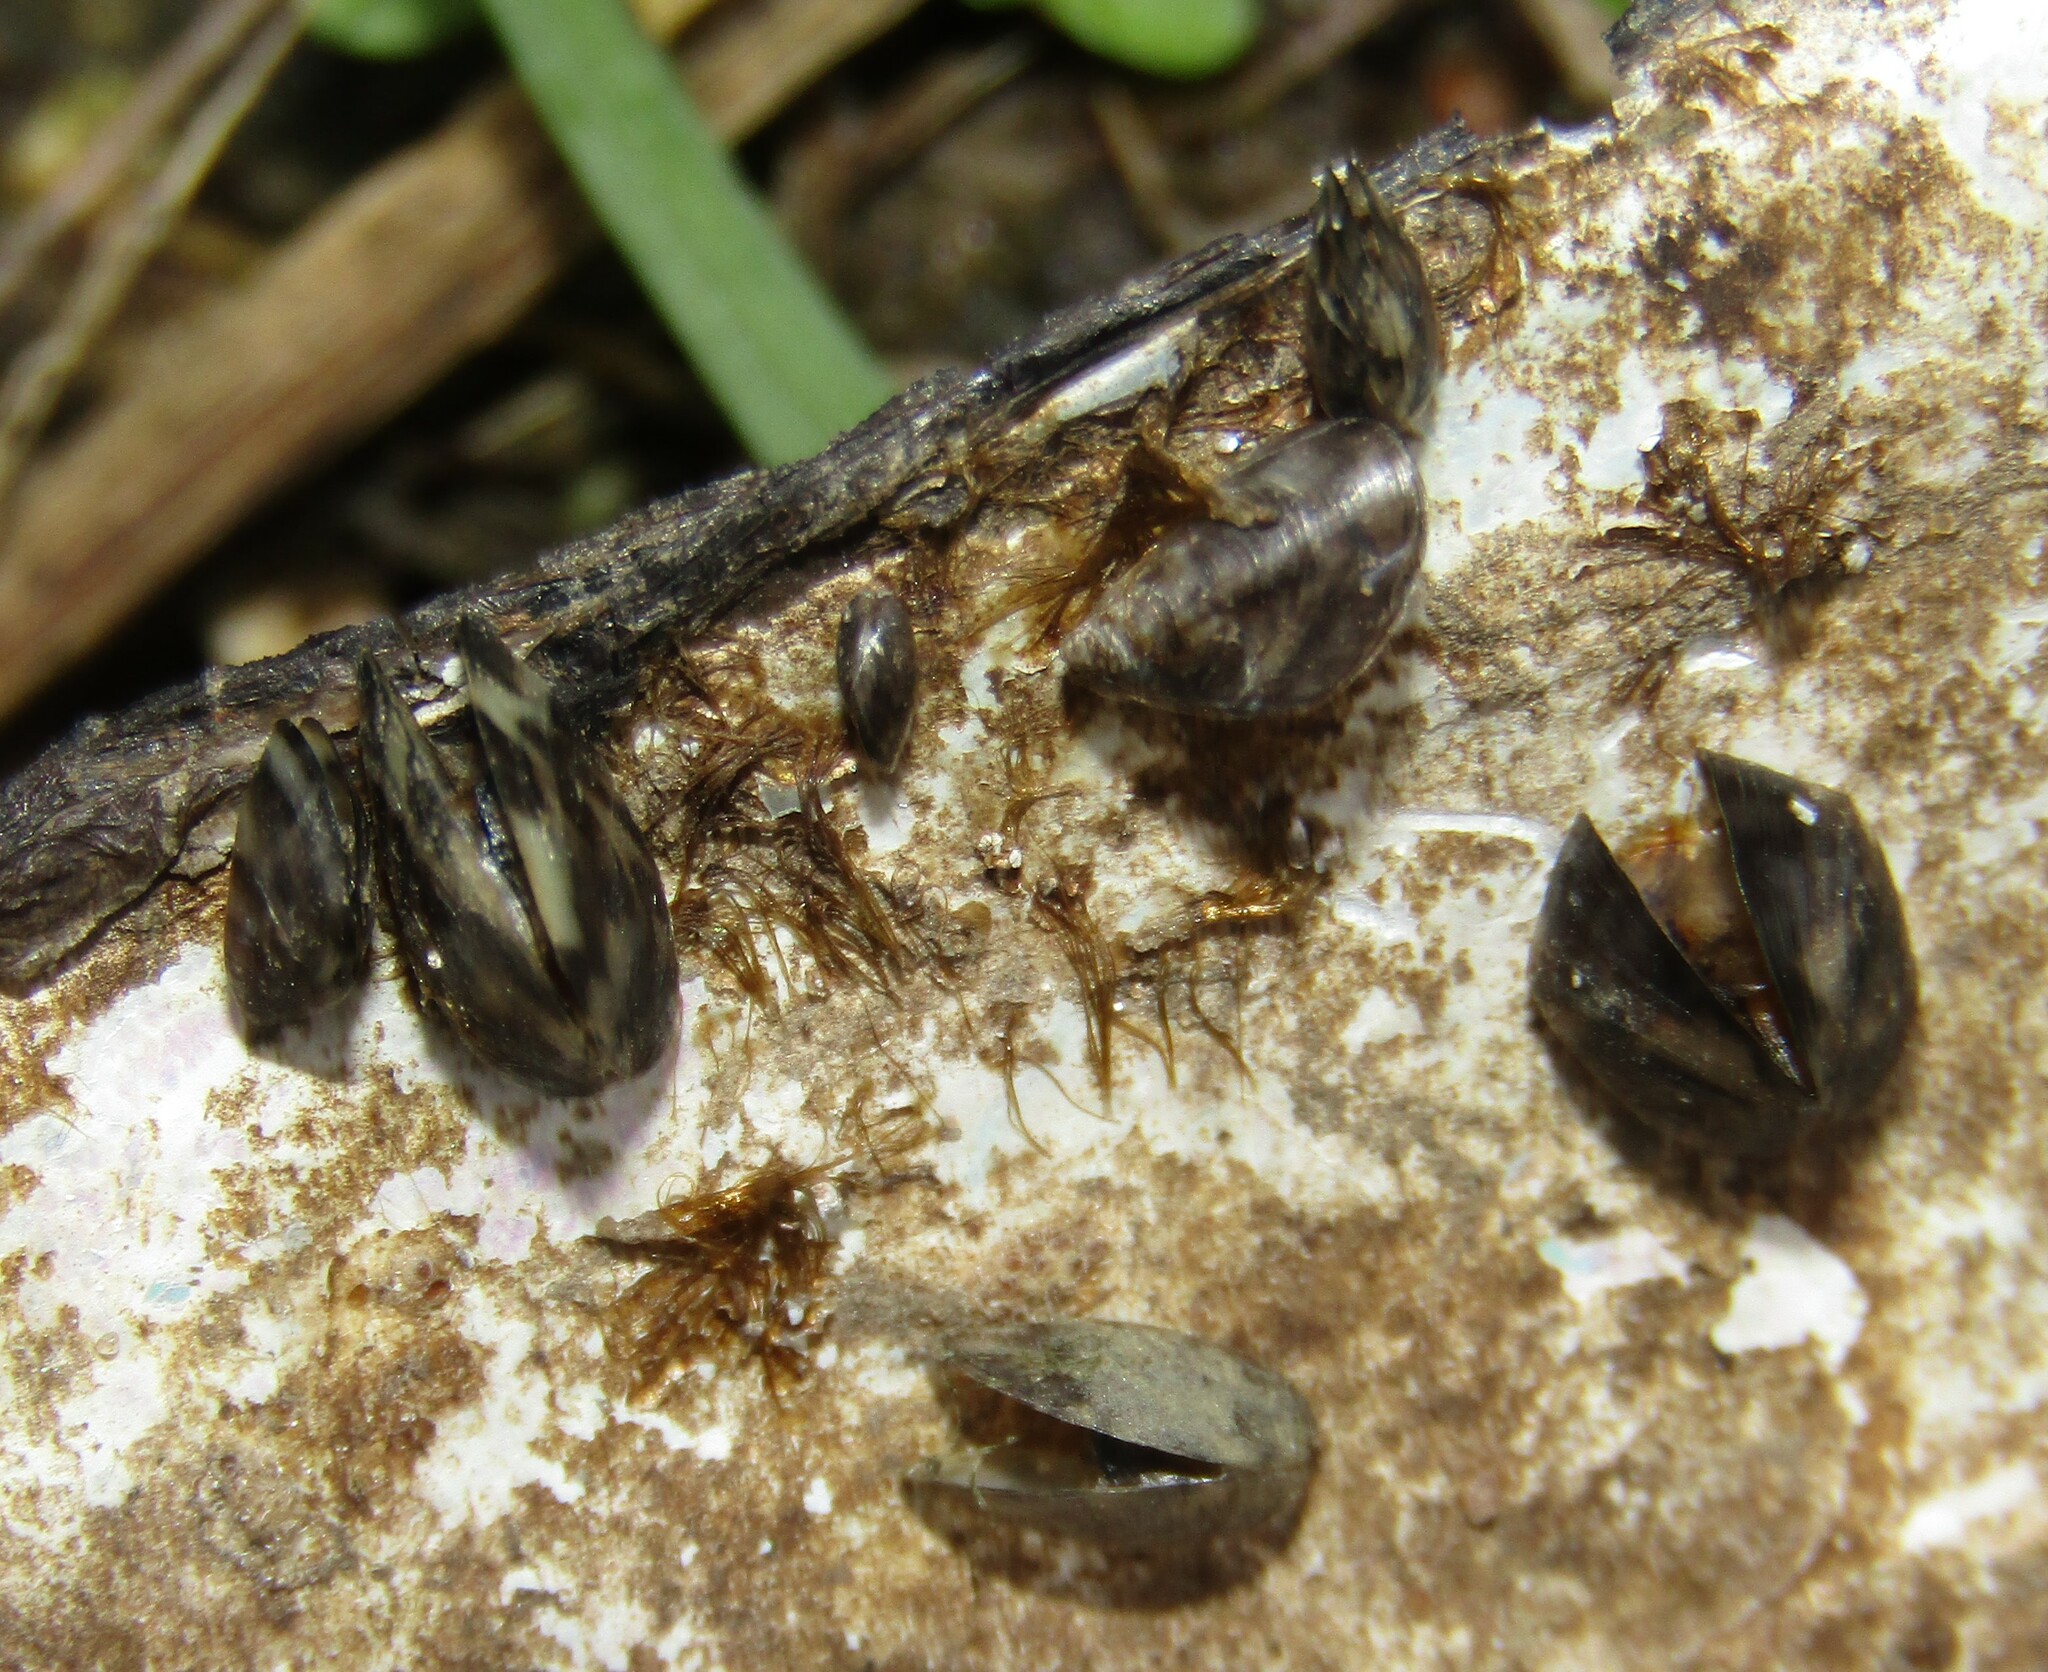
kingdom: Animalia
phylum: Mollusca
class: Bivalvia
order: Myida
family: Dreissenidae
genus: Dreissena
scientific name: Dreissena polymorpha
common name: Zebra mussel
